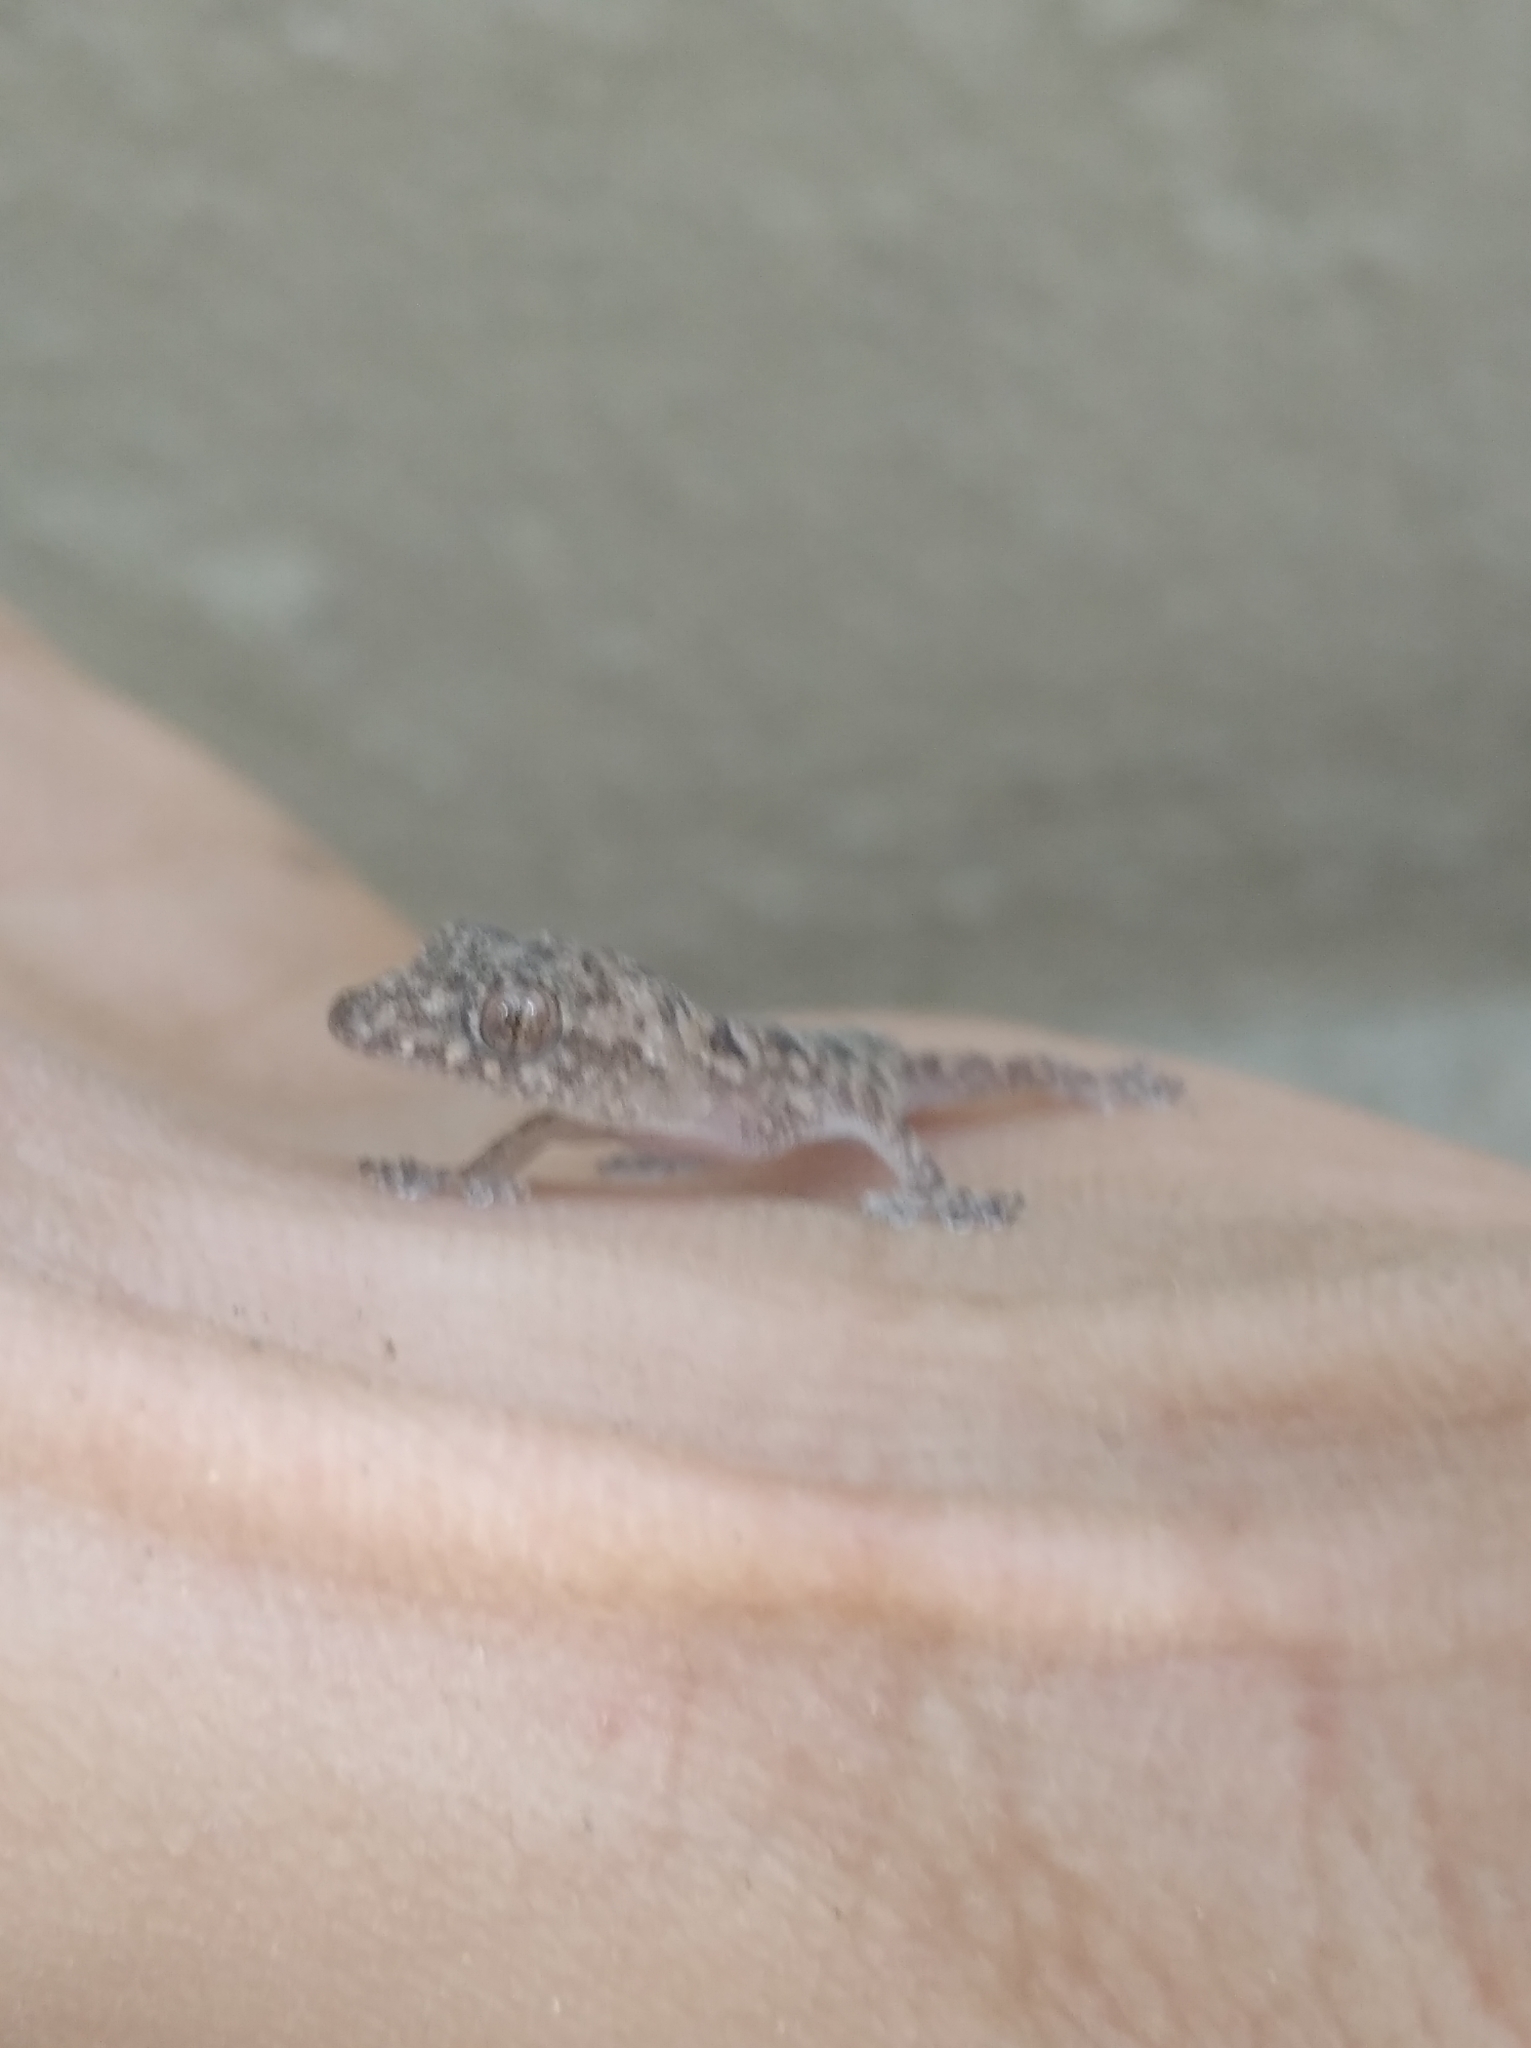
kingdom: Animalia
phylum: Chordata
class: Squamata
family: Gekkonidae
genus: Hemidactylus
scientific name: Hemidactylus mabouia
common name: House gecko
